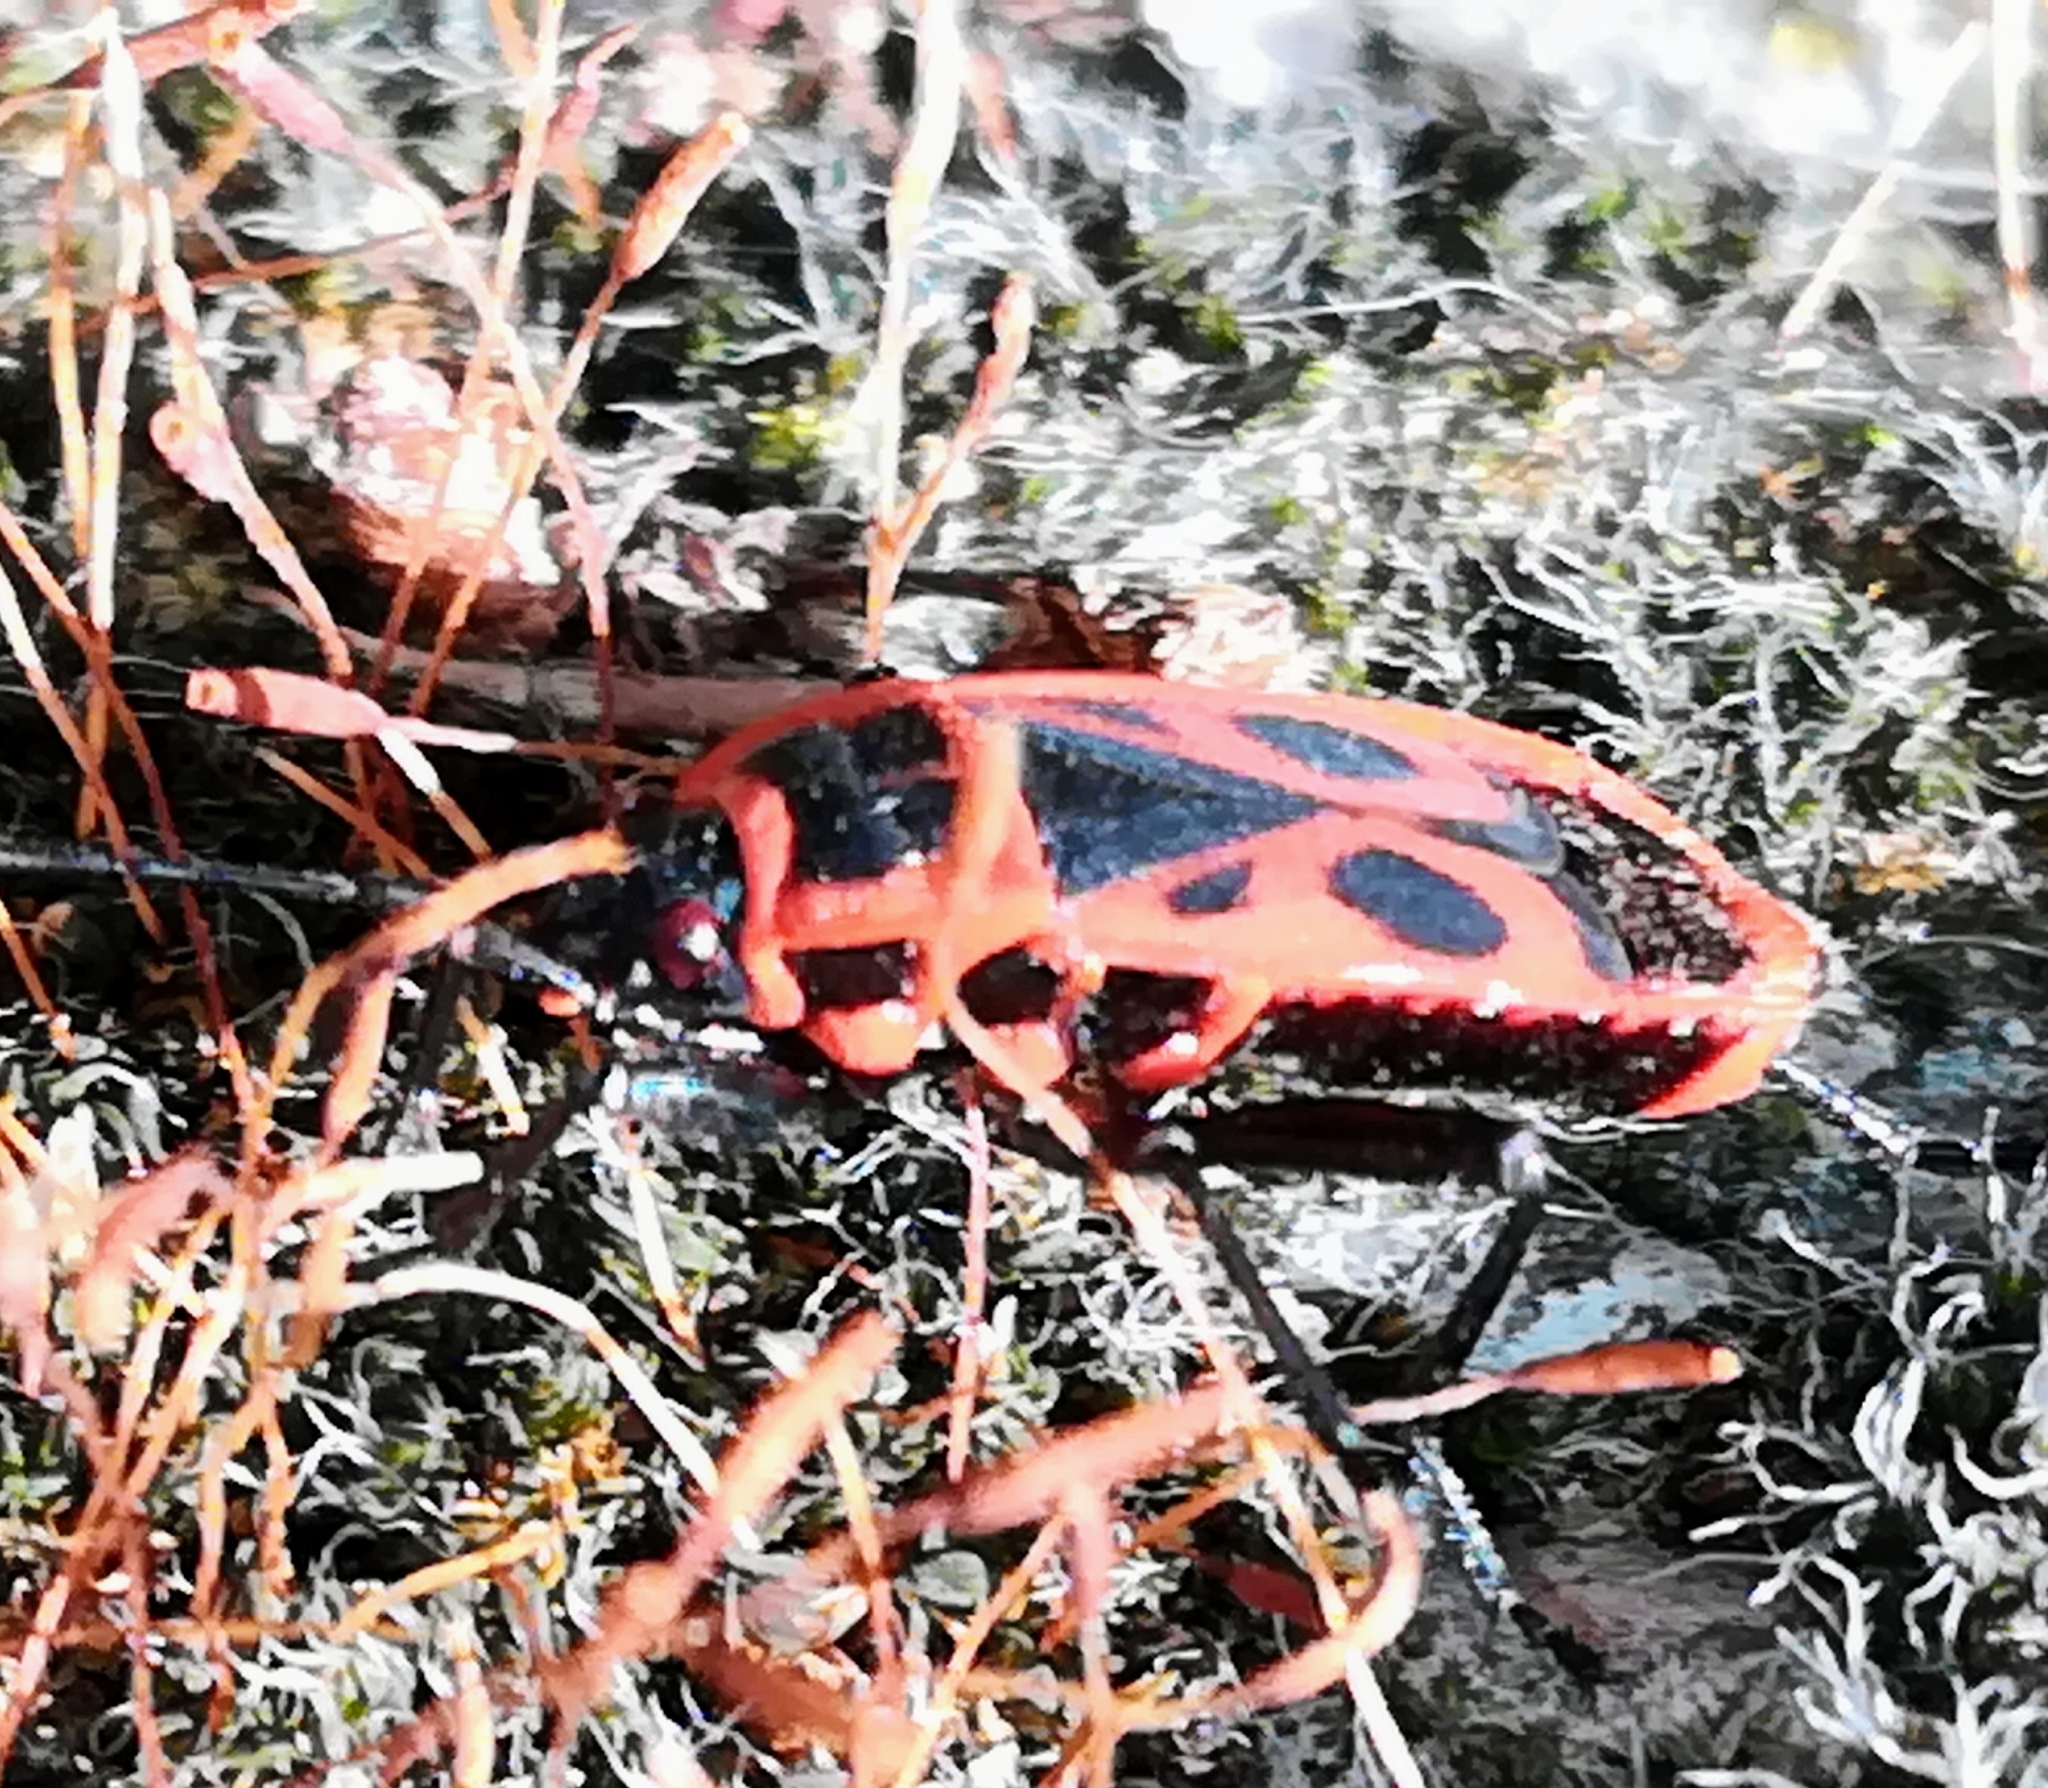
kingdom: Animalia
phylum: Arthropoda
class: Insecta
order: Hemiptera
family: Pyrrhocoridae
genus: Pyrrhocoris
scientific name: Pyrrhocoris apterus
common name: Firebug
